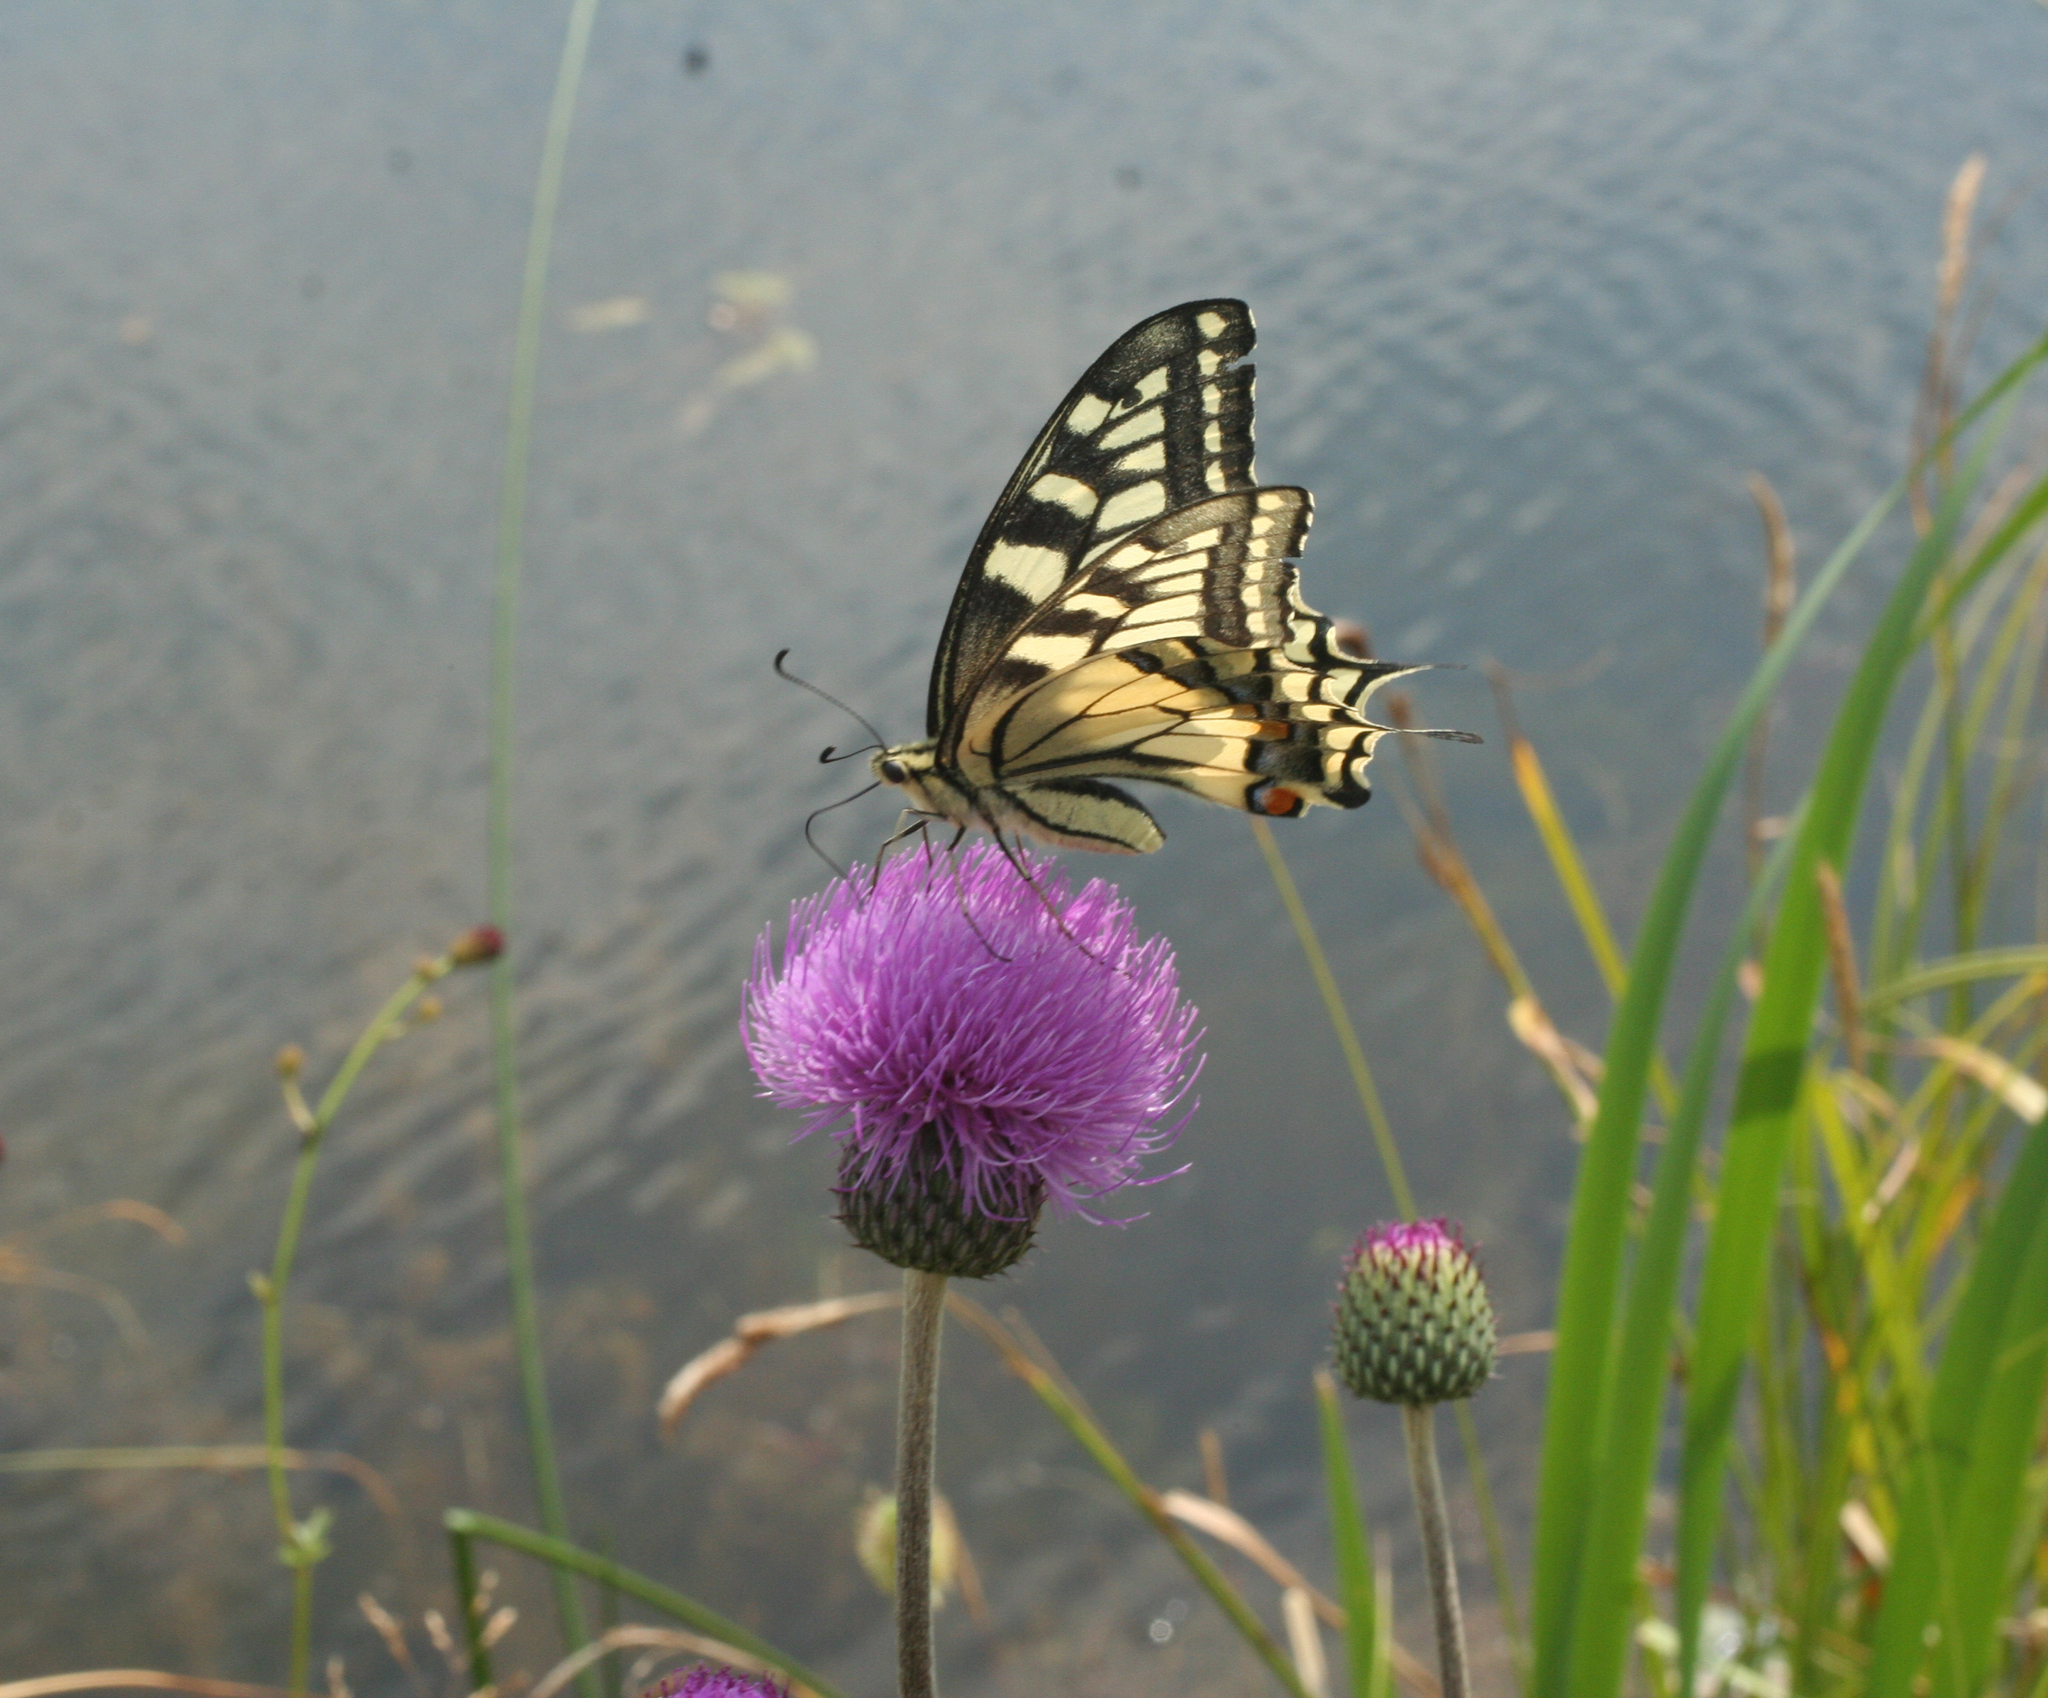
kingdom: Animalia
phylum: Arthropoda
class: Insecta
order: Lepidoptera
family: Papilionidae
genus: Papilio
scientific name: Papilio machaon
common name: Swallowtail
